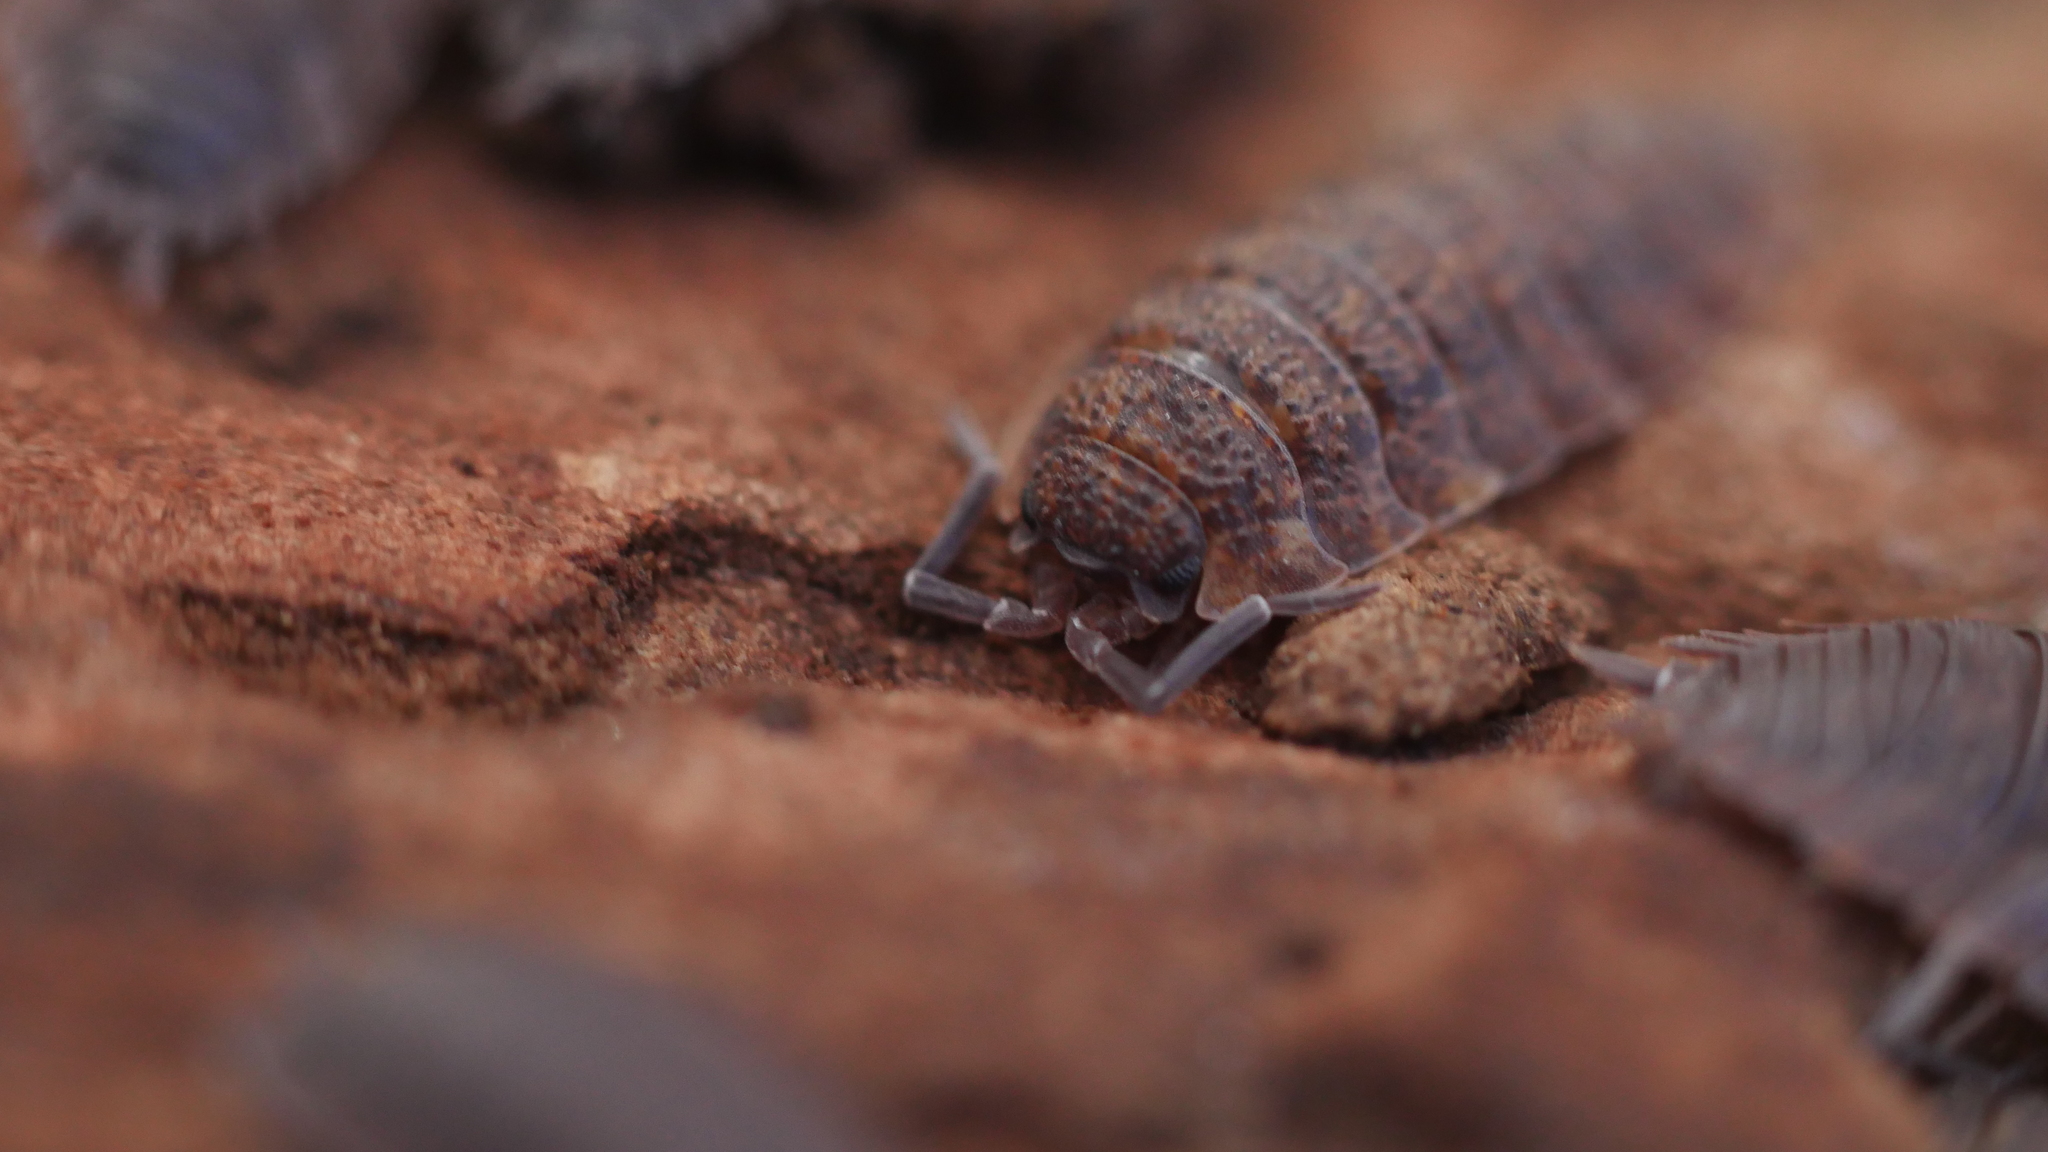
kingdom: Animalia
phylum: Arthropoda
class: Malacostraca
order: Isopoda
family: Porcellionidae
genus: Porcellio
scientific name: Porcellio scaber
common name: Common rough woodlouse
